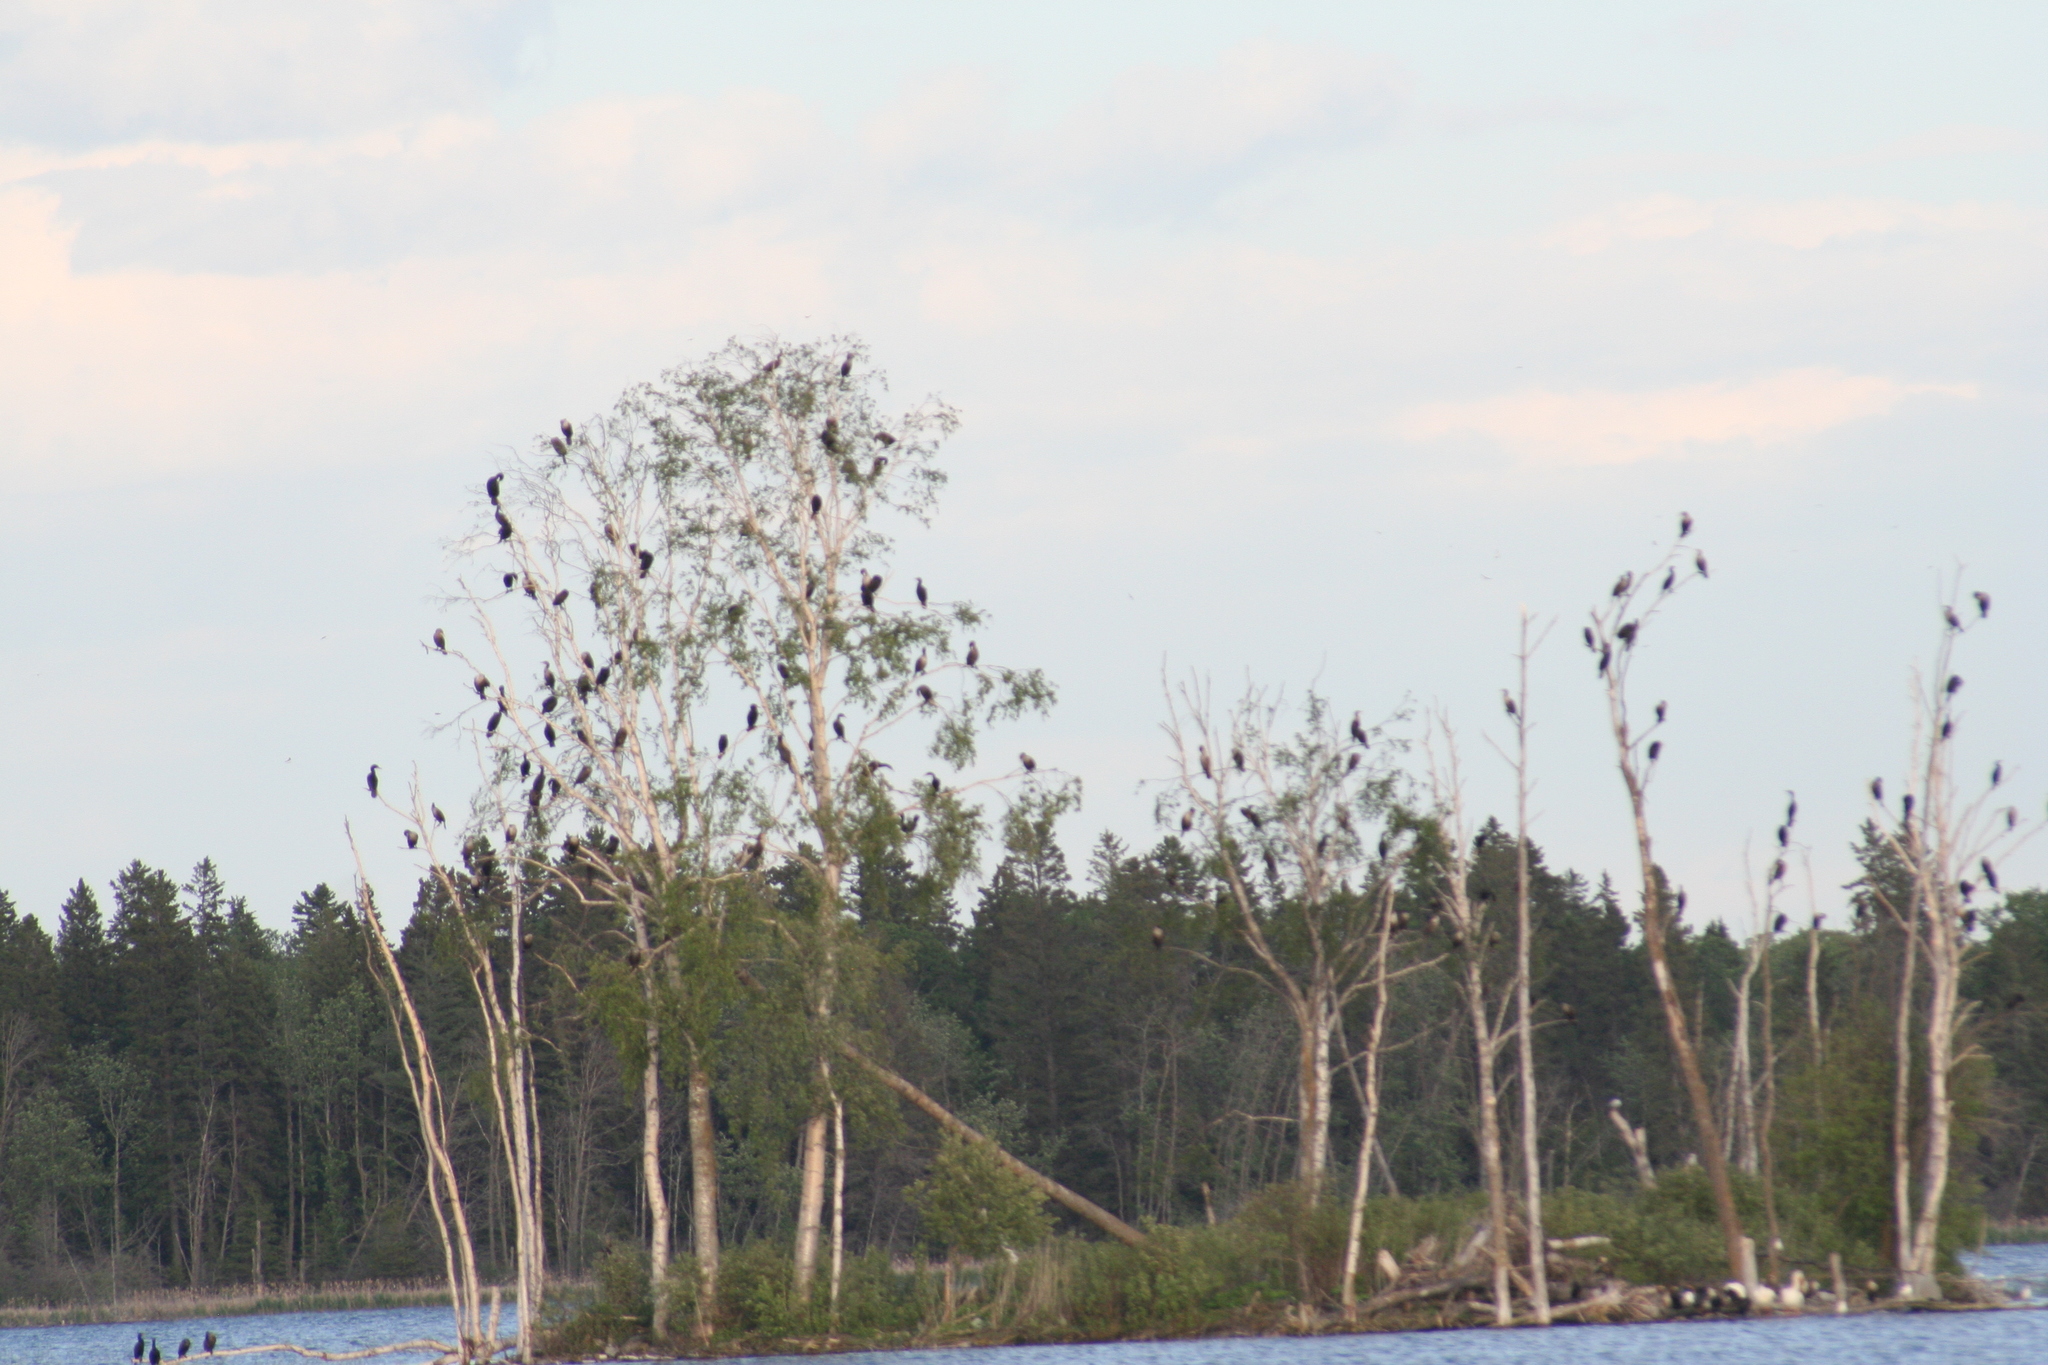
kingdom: Animalia
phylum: Chordata
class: Aves
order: Suliformes
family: Phalacrocoracidae
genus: Phalacrocorax
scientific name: Phalacrocorax auritus
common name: Double-crested cormorant
